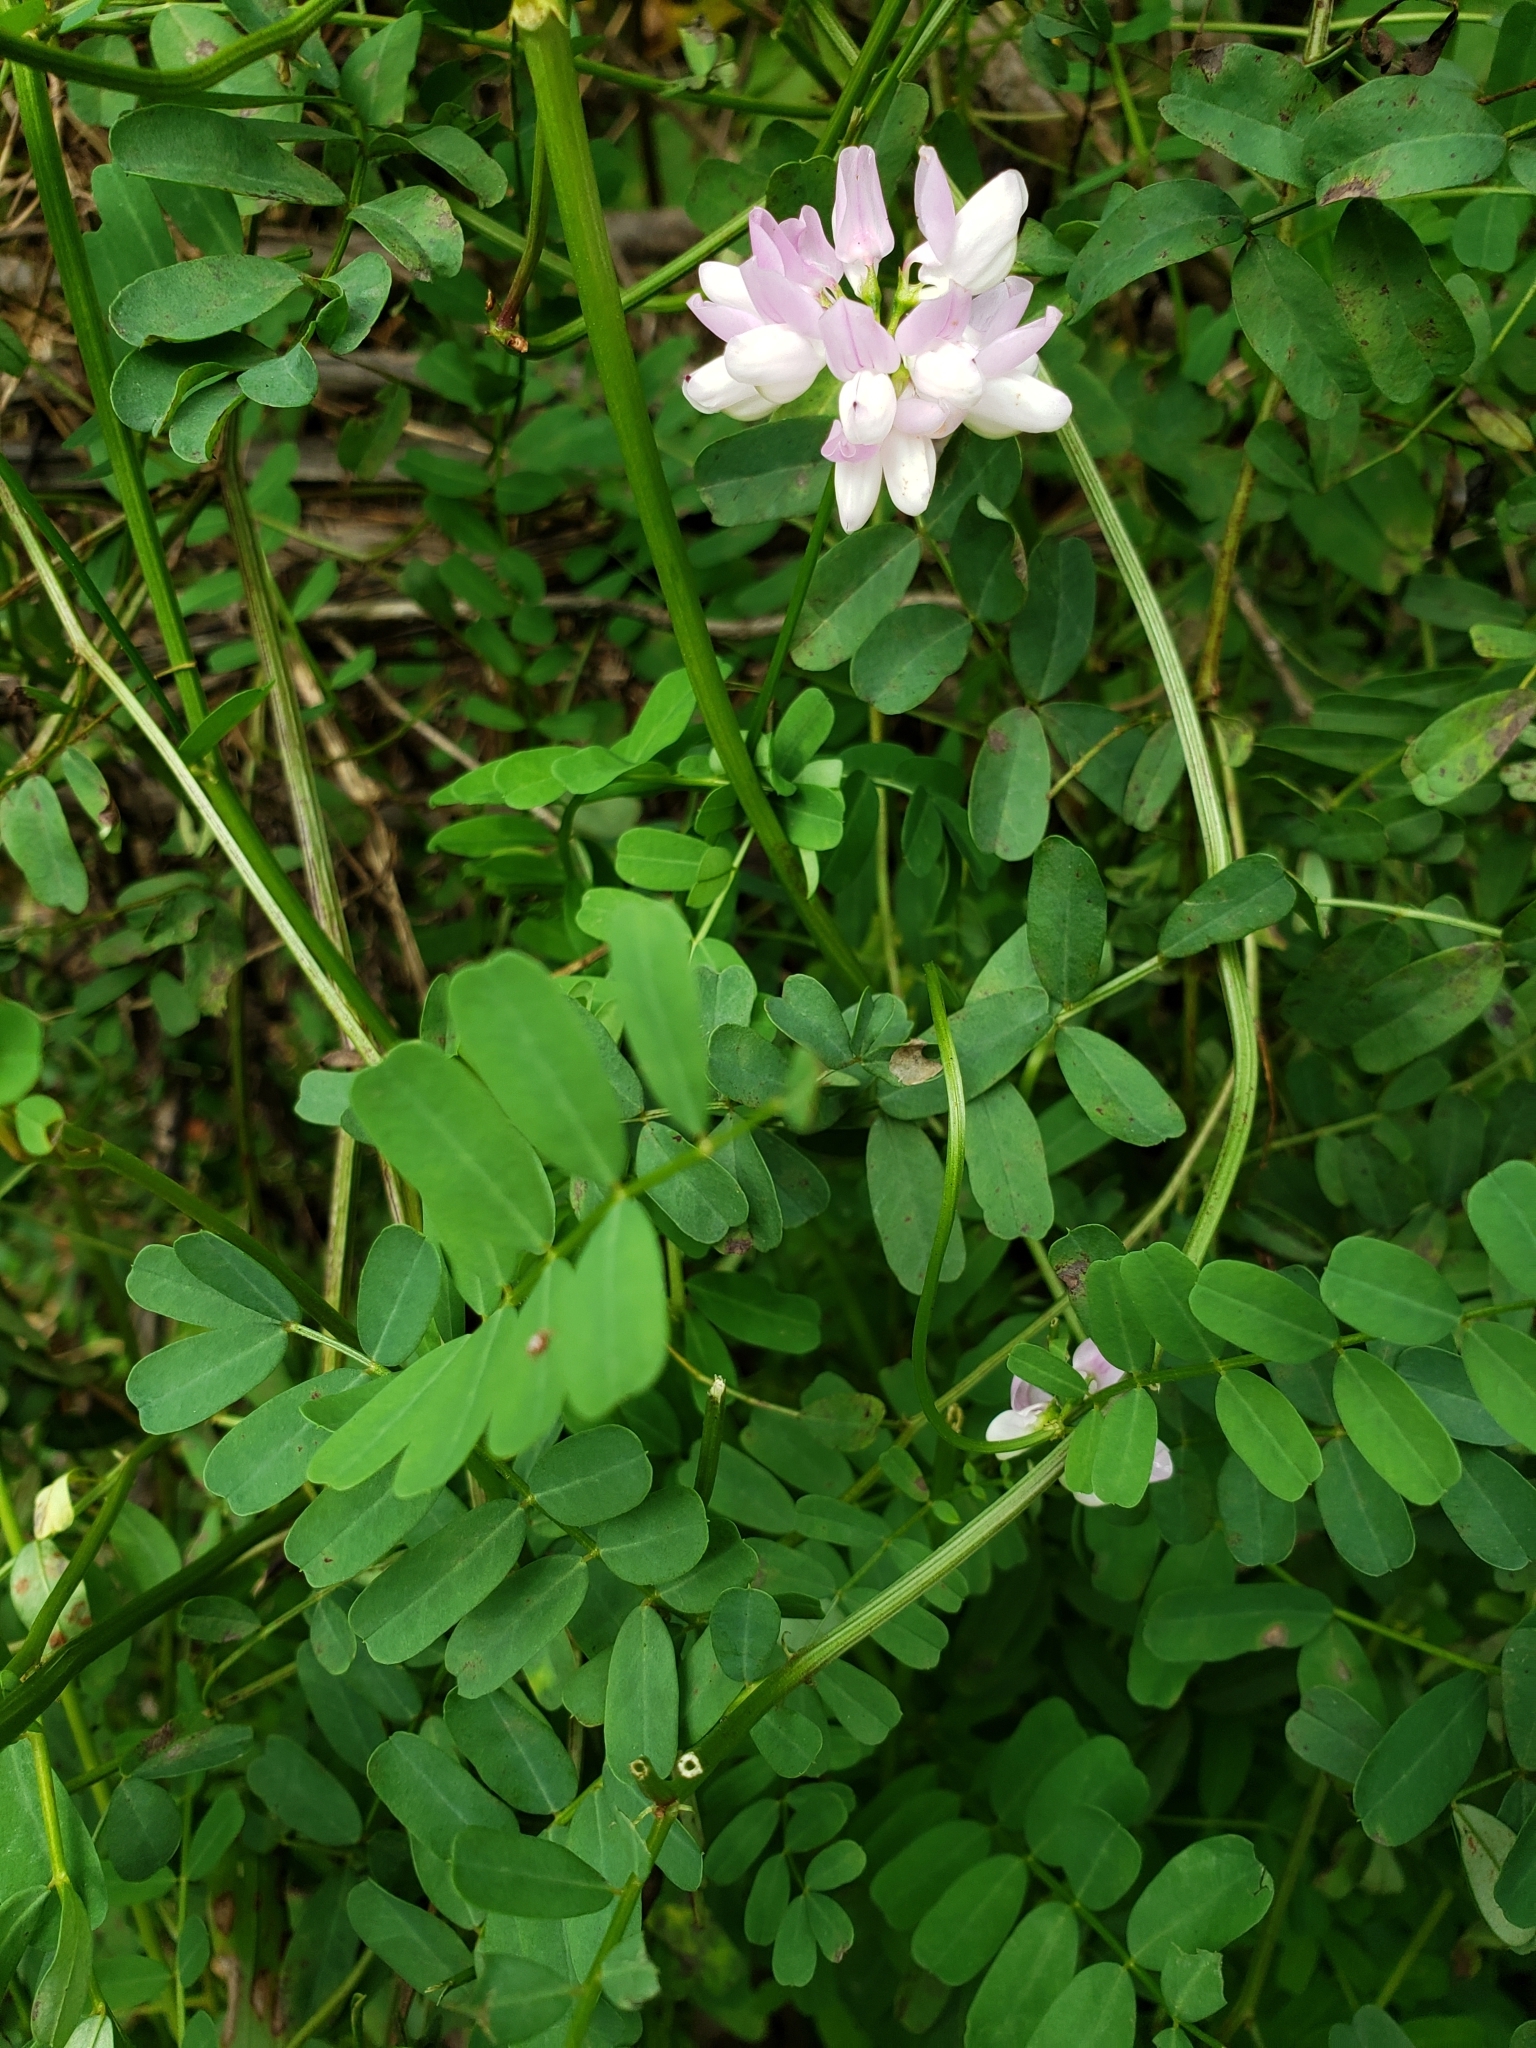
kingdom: Plantae
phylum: Tracheophyta
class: Magnoliopsida
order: Fabales
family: Fabaceae
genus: Coronilla
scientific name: Coronilla varia
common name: Crownvetch
